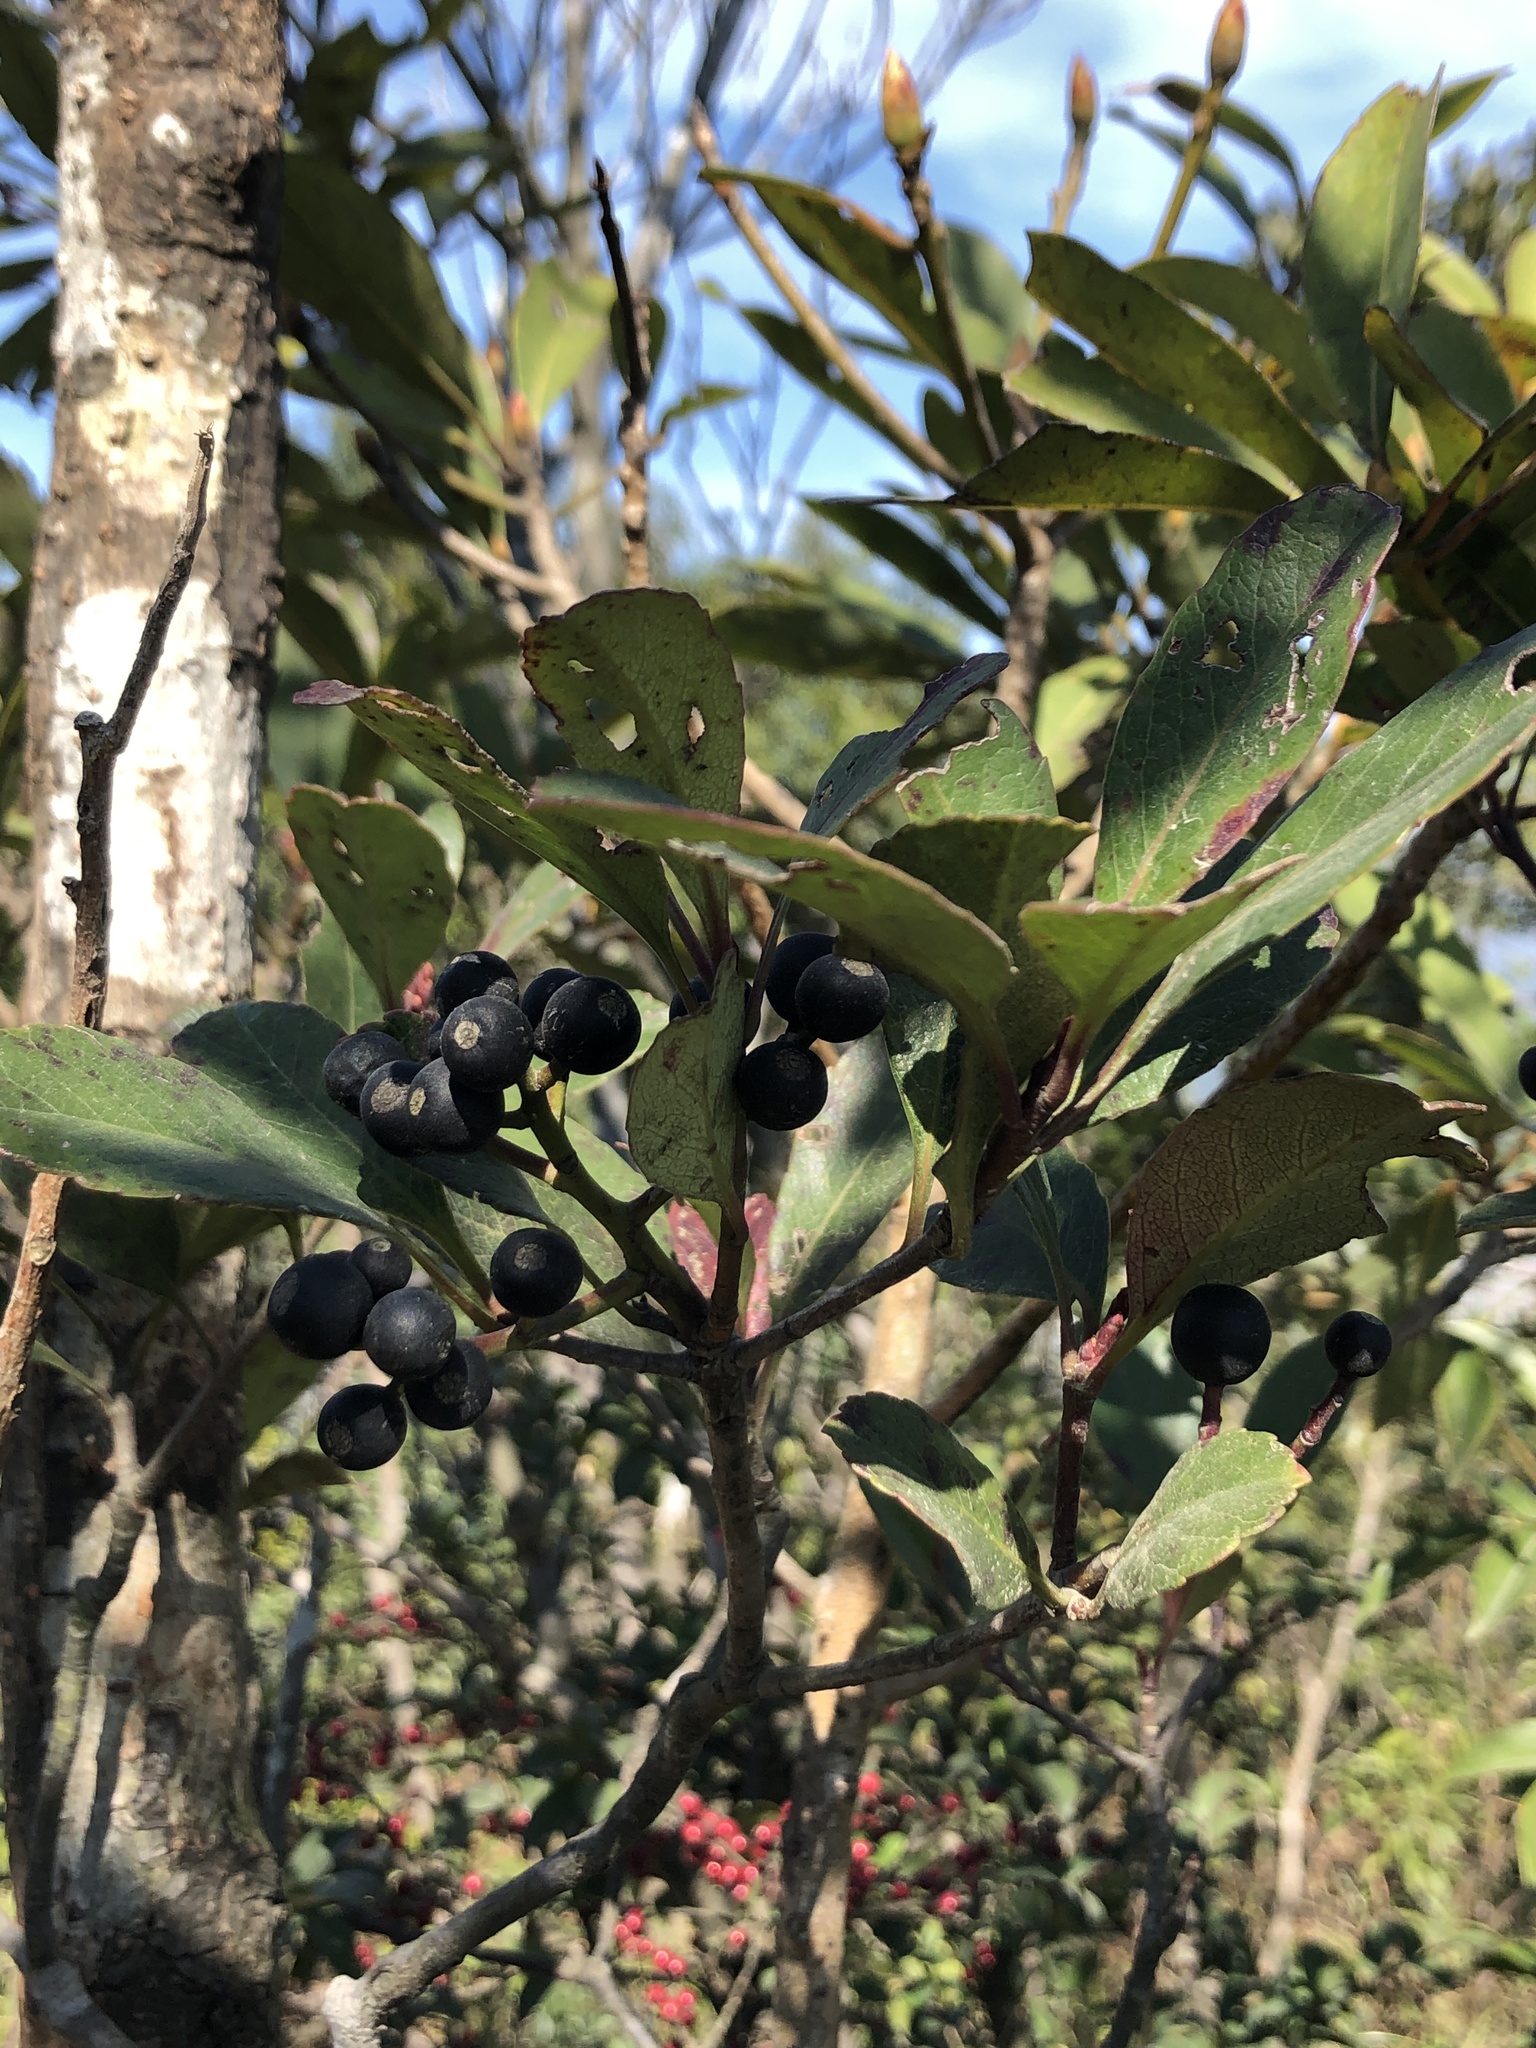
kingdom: Plantae
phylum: Tracheophyta
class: Magnoliopsida
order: Rosales
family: Rosaceae
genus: Rhaphiolepis
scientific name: Rhaphiolepis indica
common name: India-hawthorn
